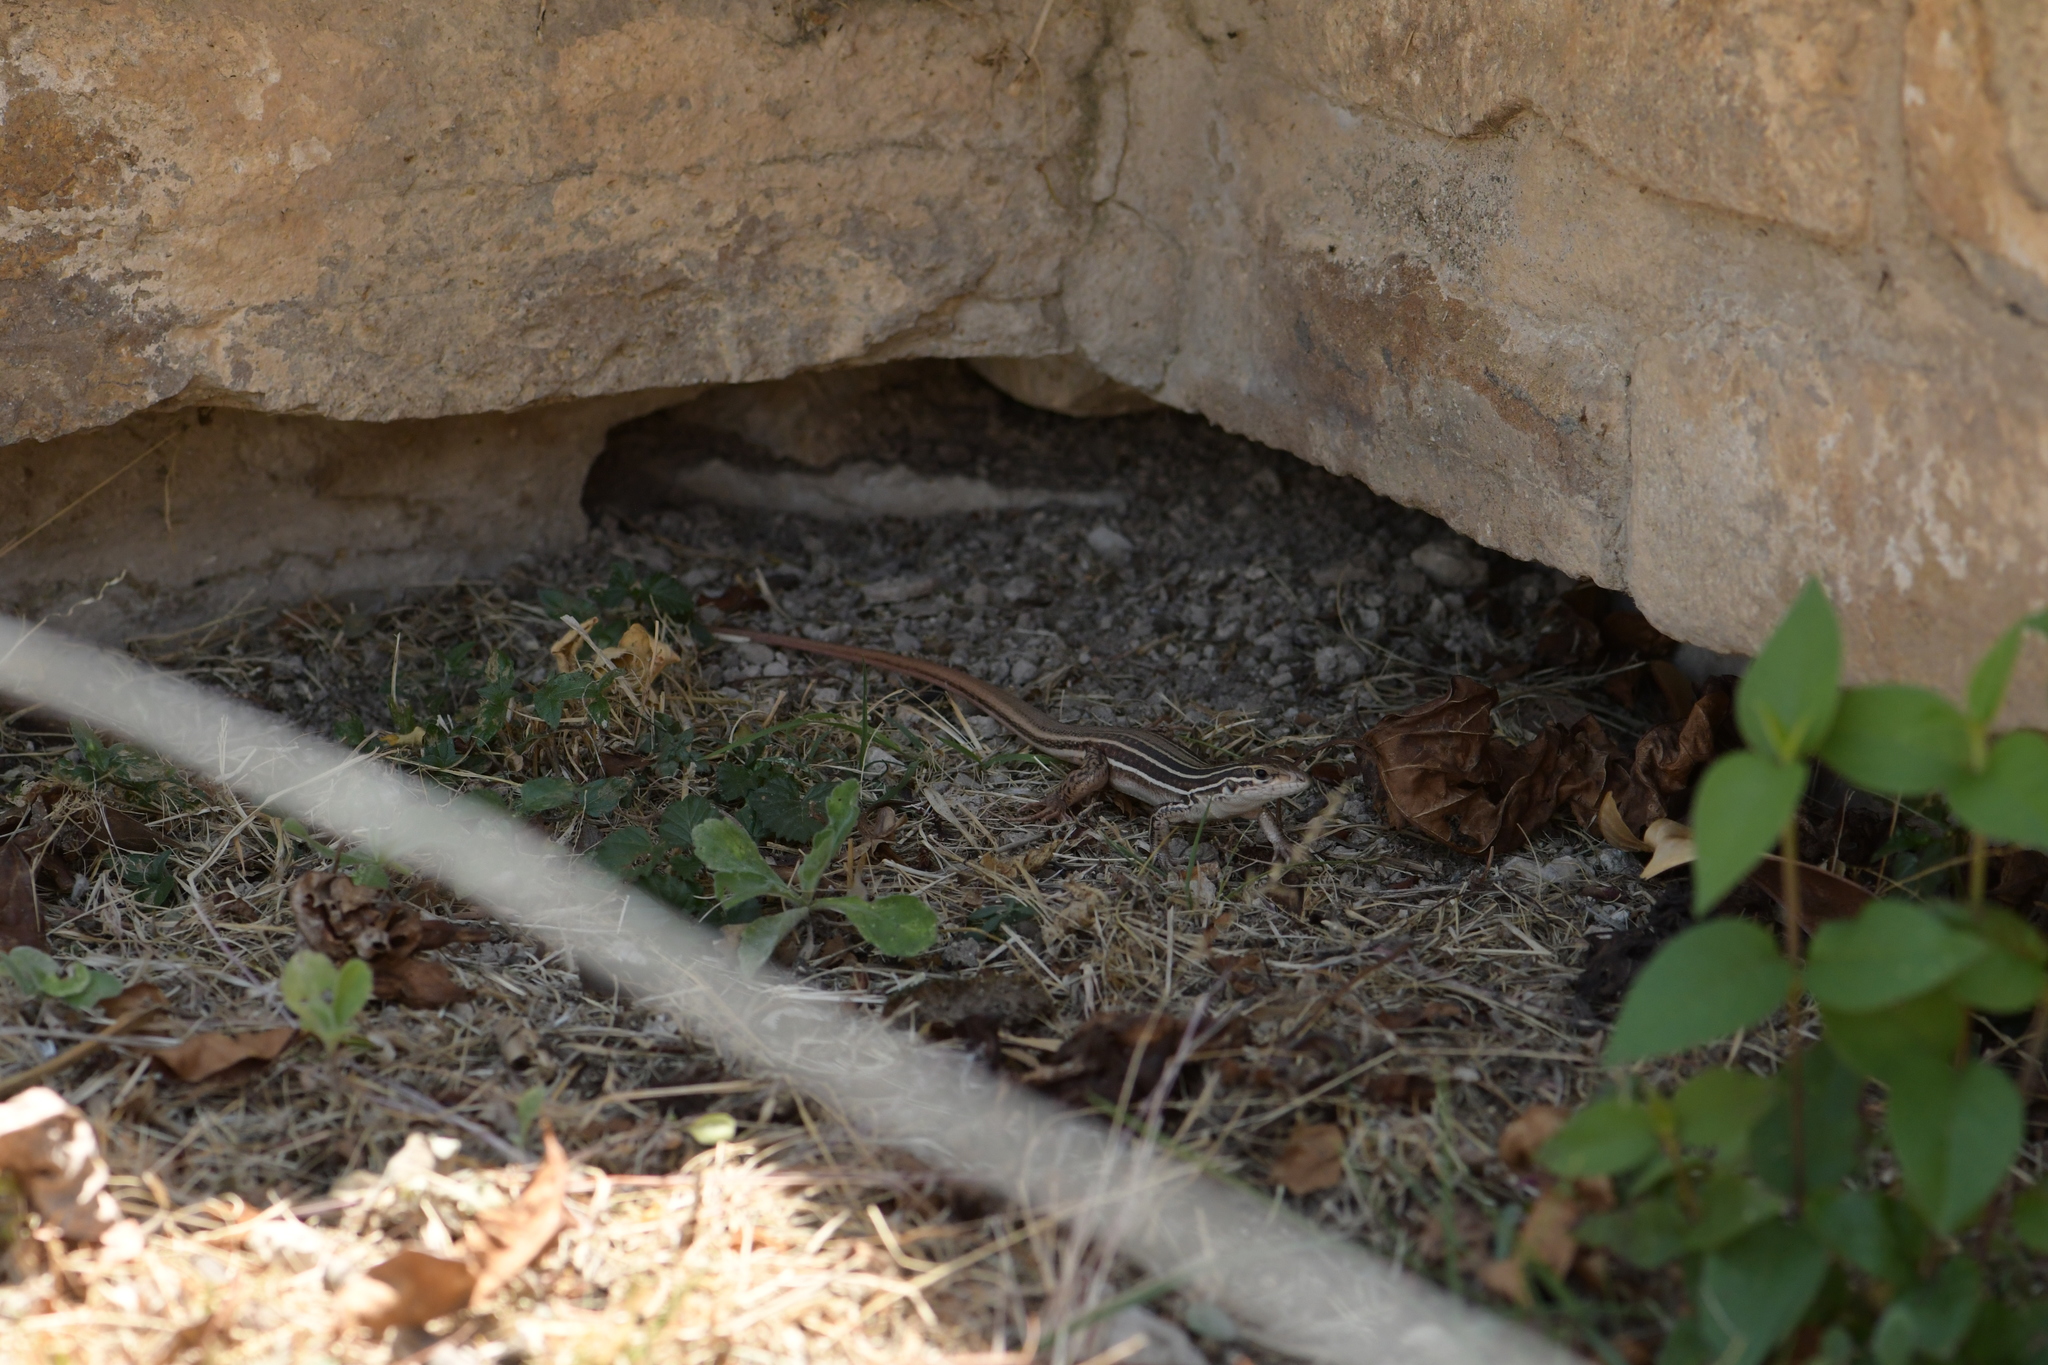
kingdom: Animalia
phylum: Chordata
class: Squamata
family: Teiidae
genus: Aspidoscelis
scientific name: Aspidoscelis mexicanus
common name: Mexican whiptail
